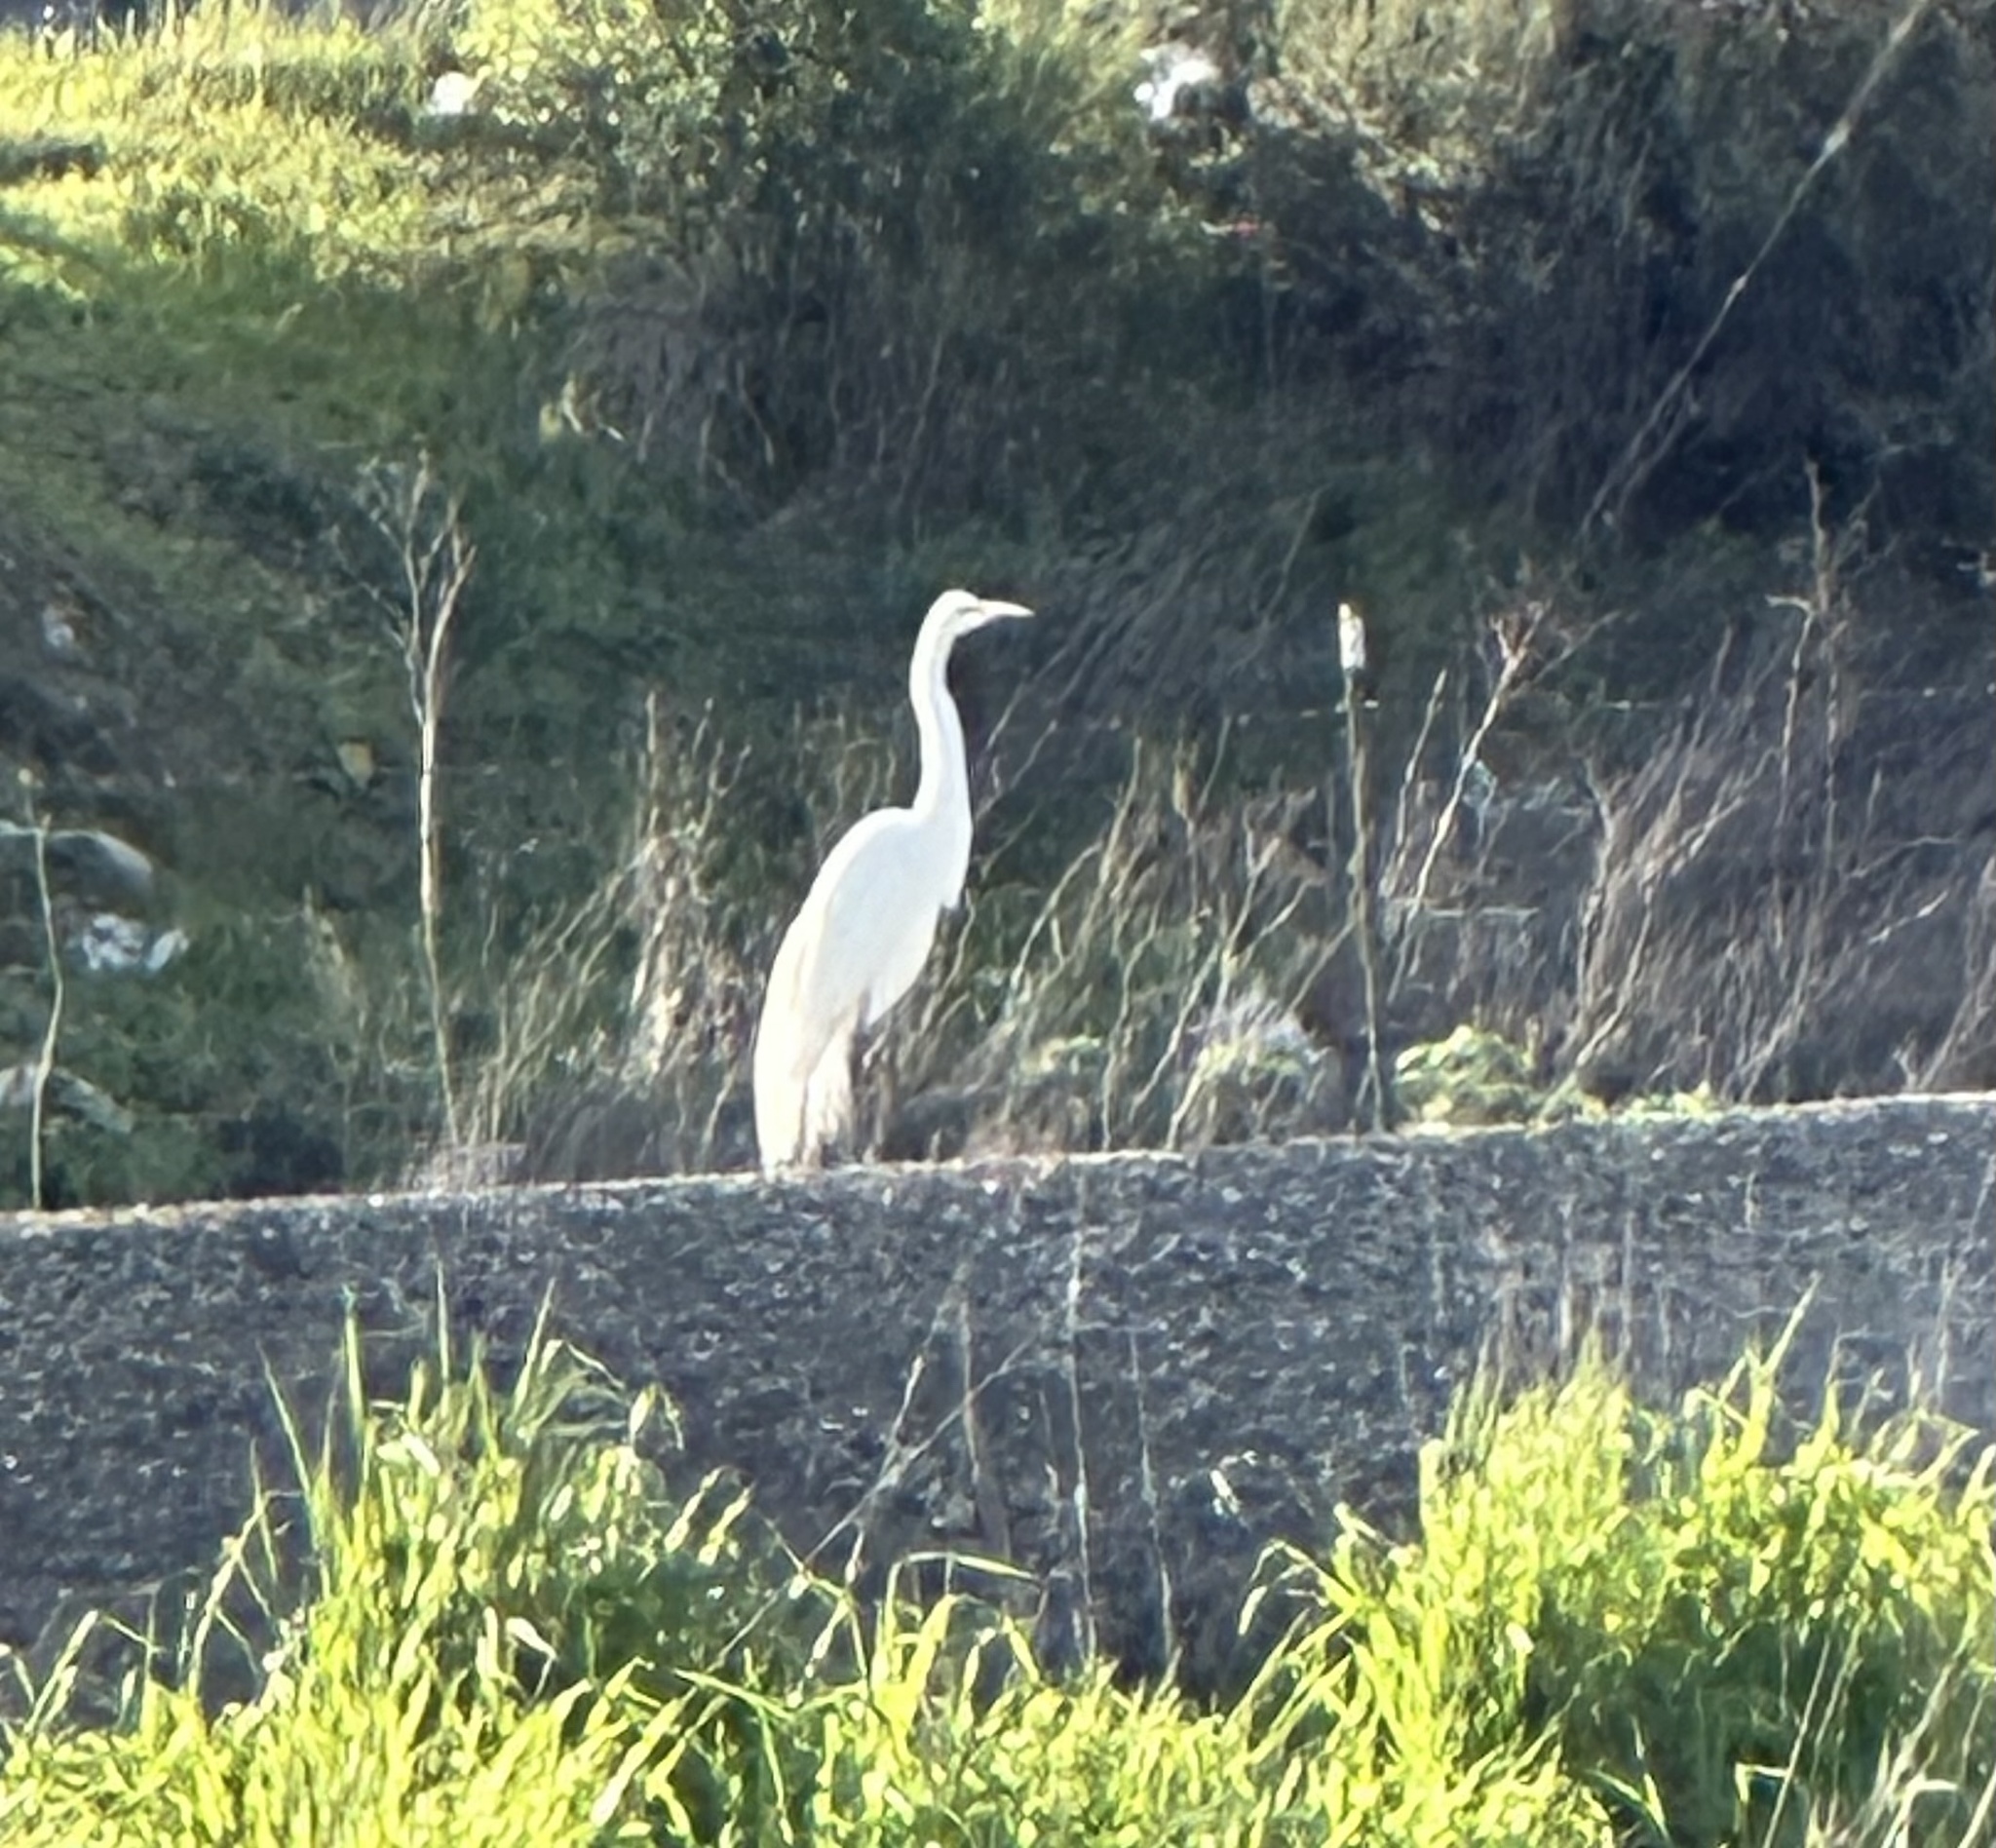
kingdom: Animalia
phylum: Chordata
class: Aves
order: Pelecaniformes
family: Ardeidae
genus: Ardea
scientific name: Ardea alba
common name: Great egret
